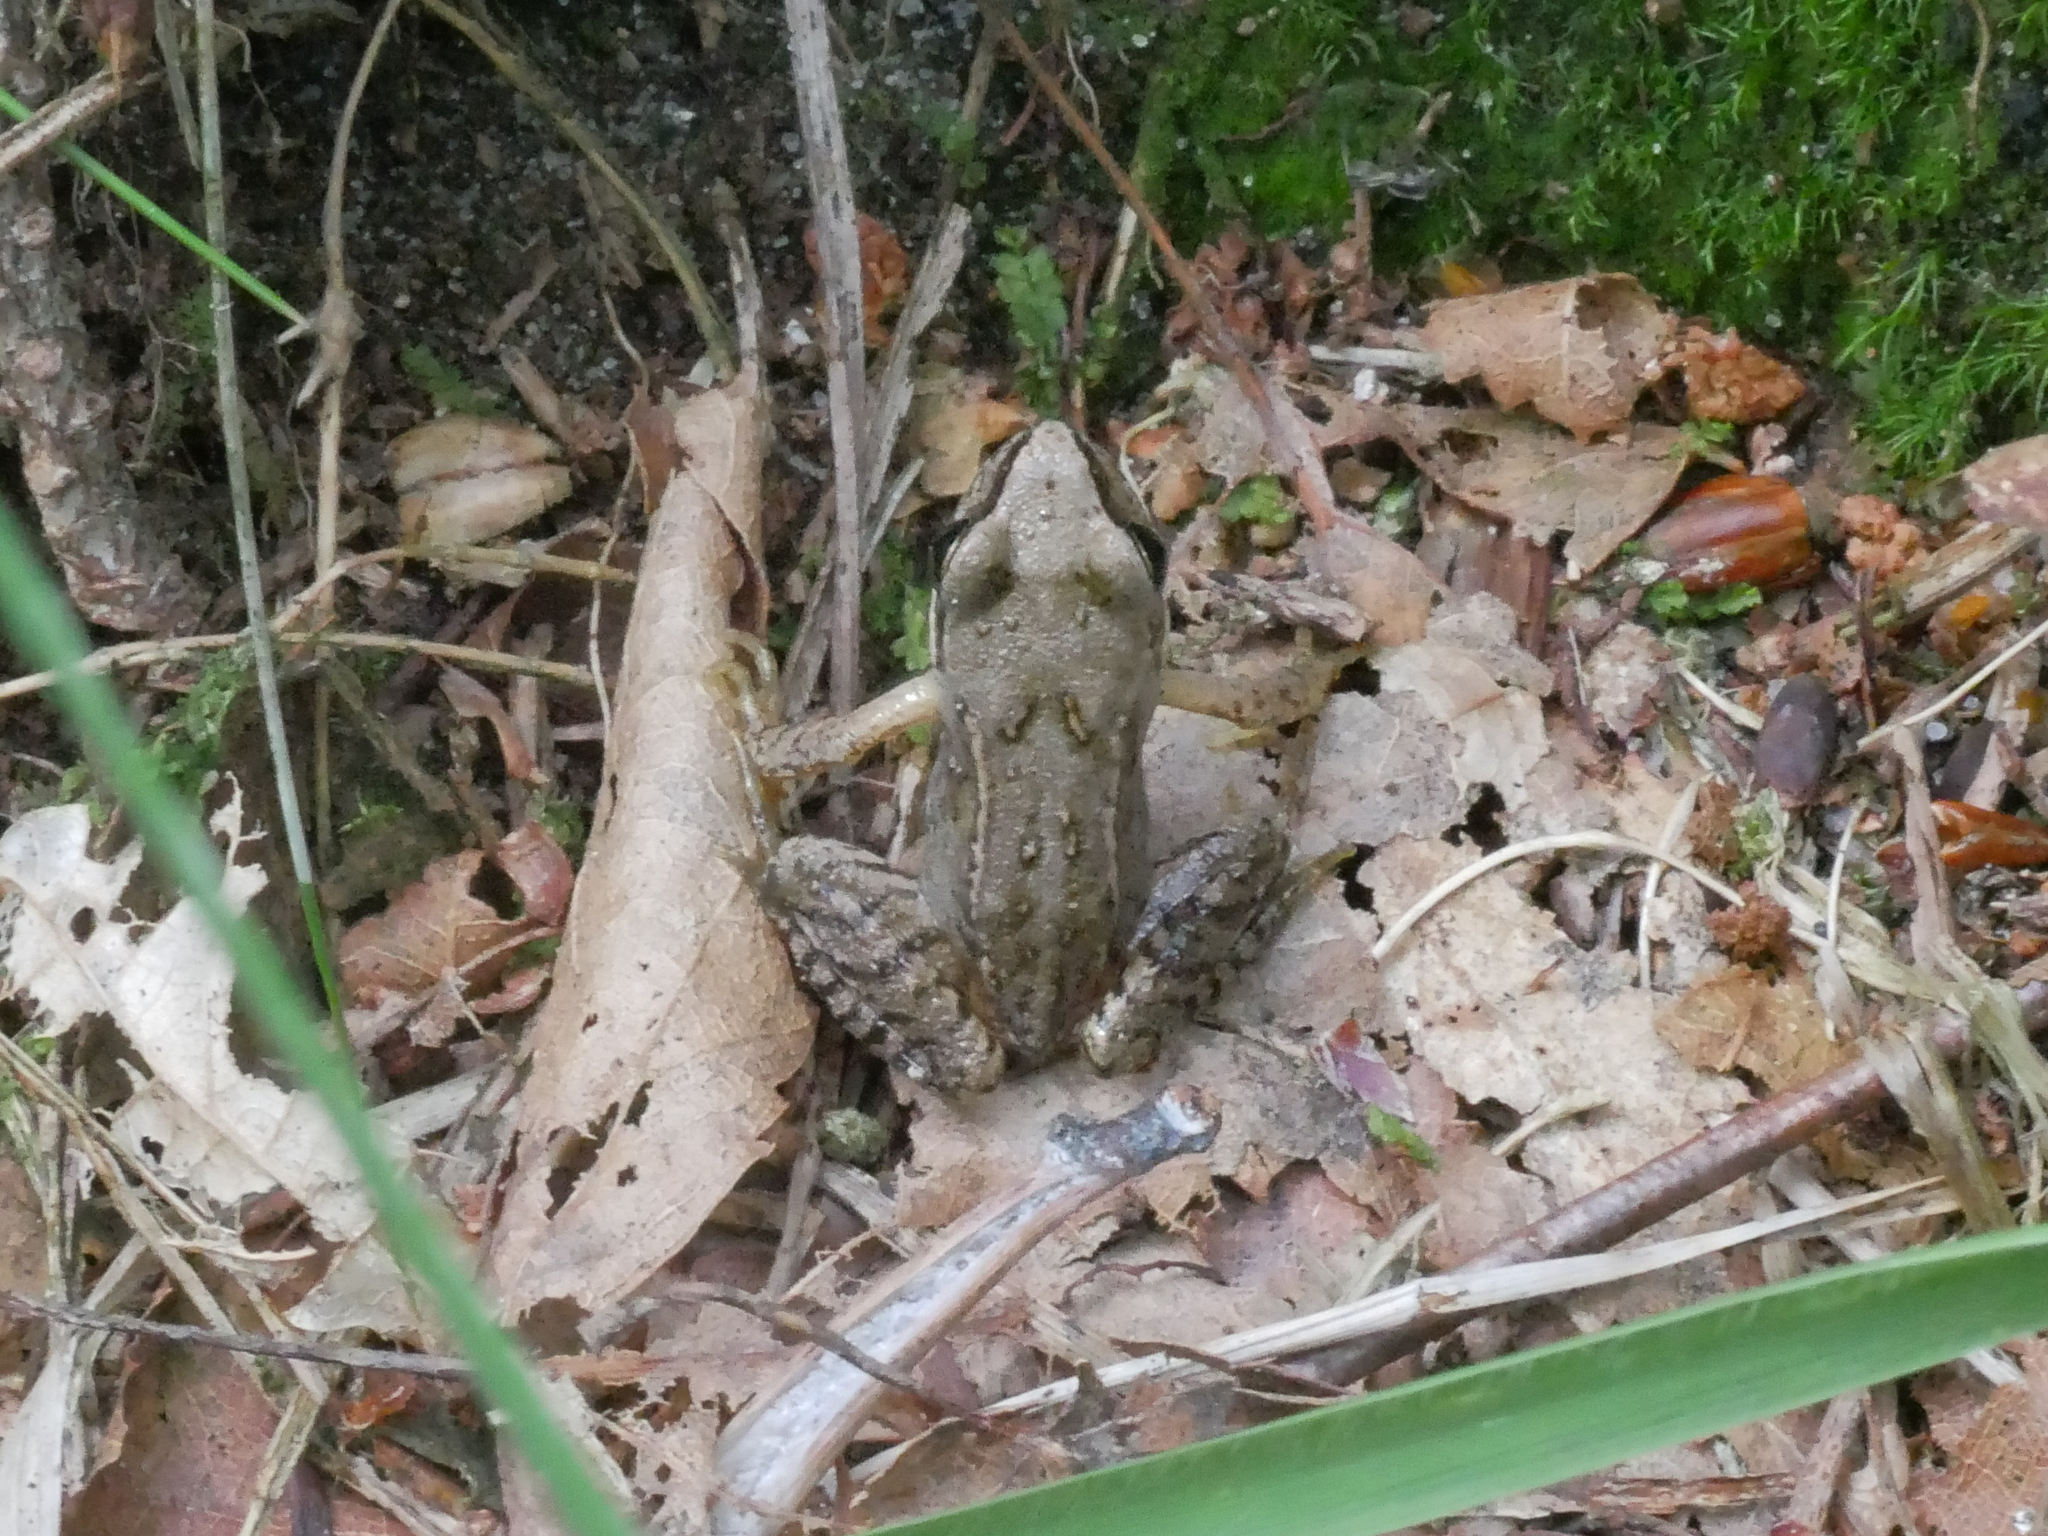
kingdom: Animalia
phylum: Chordata
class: Amphibia
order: Anura
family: Ranidae
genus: Rana
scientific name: Rana temporaria
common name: Common frog
